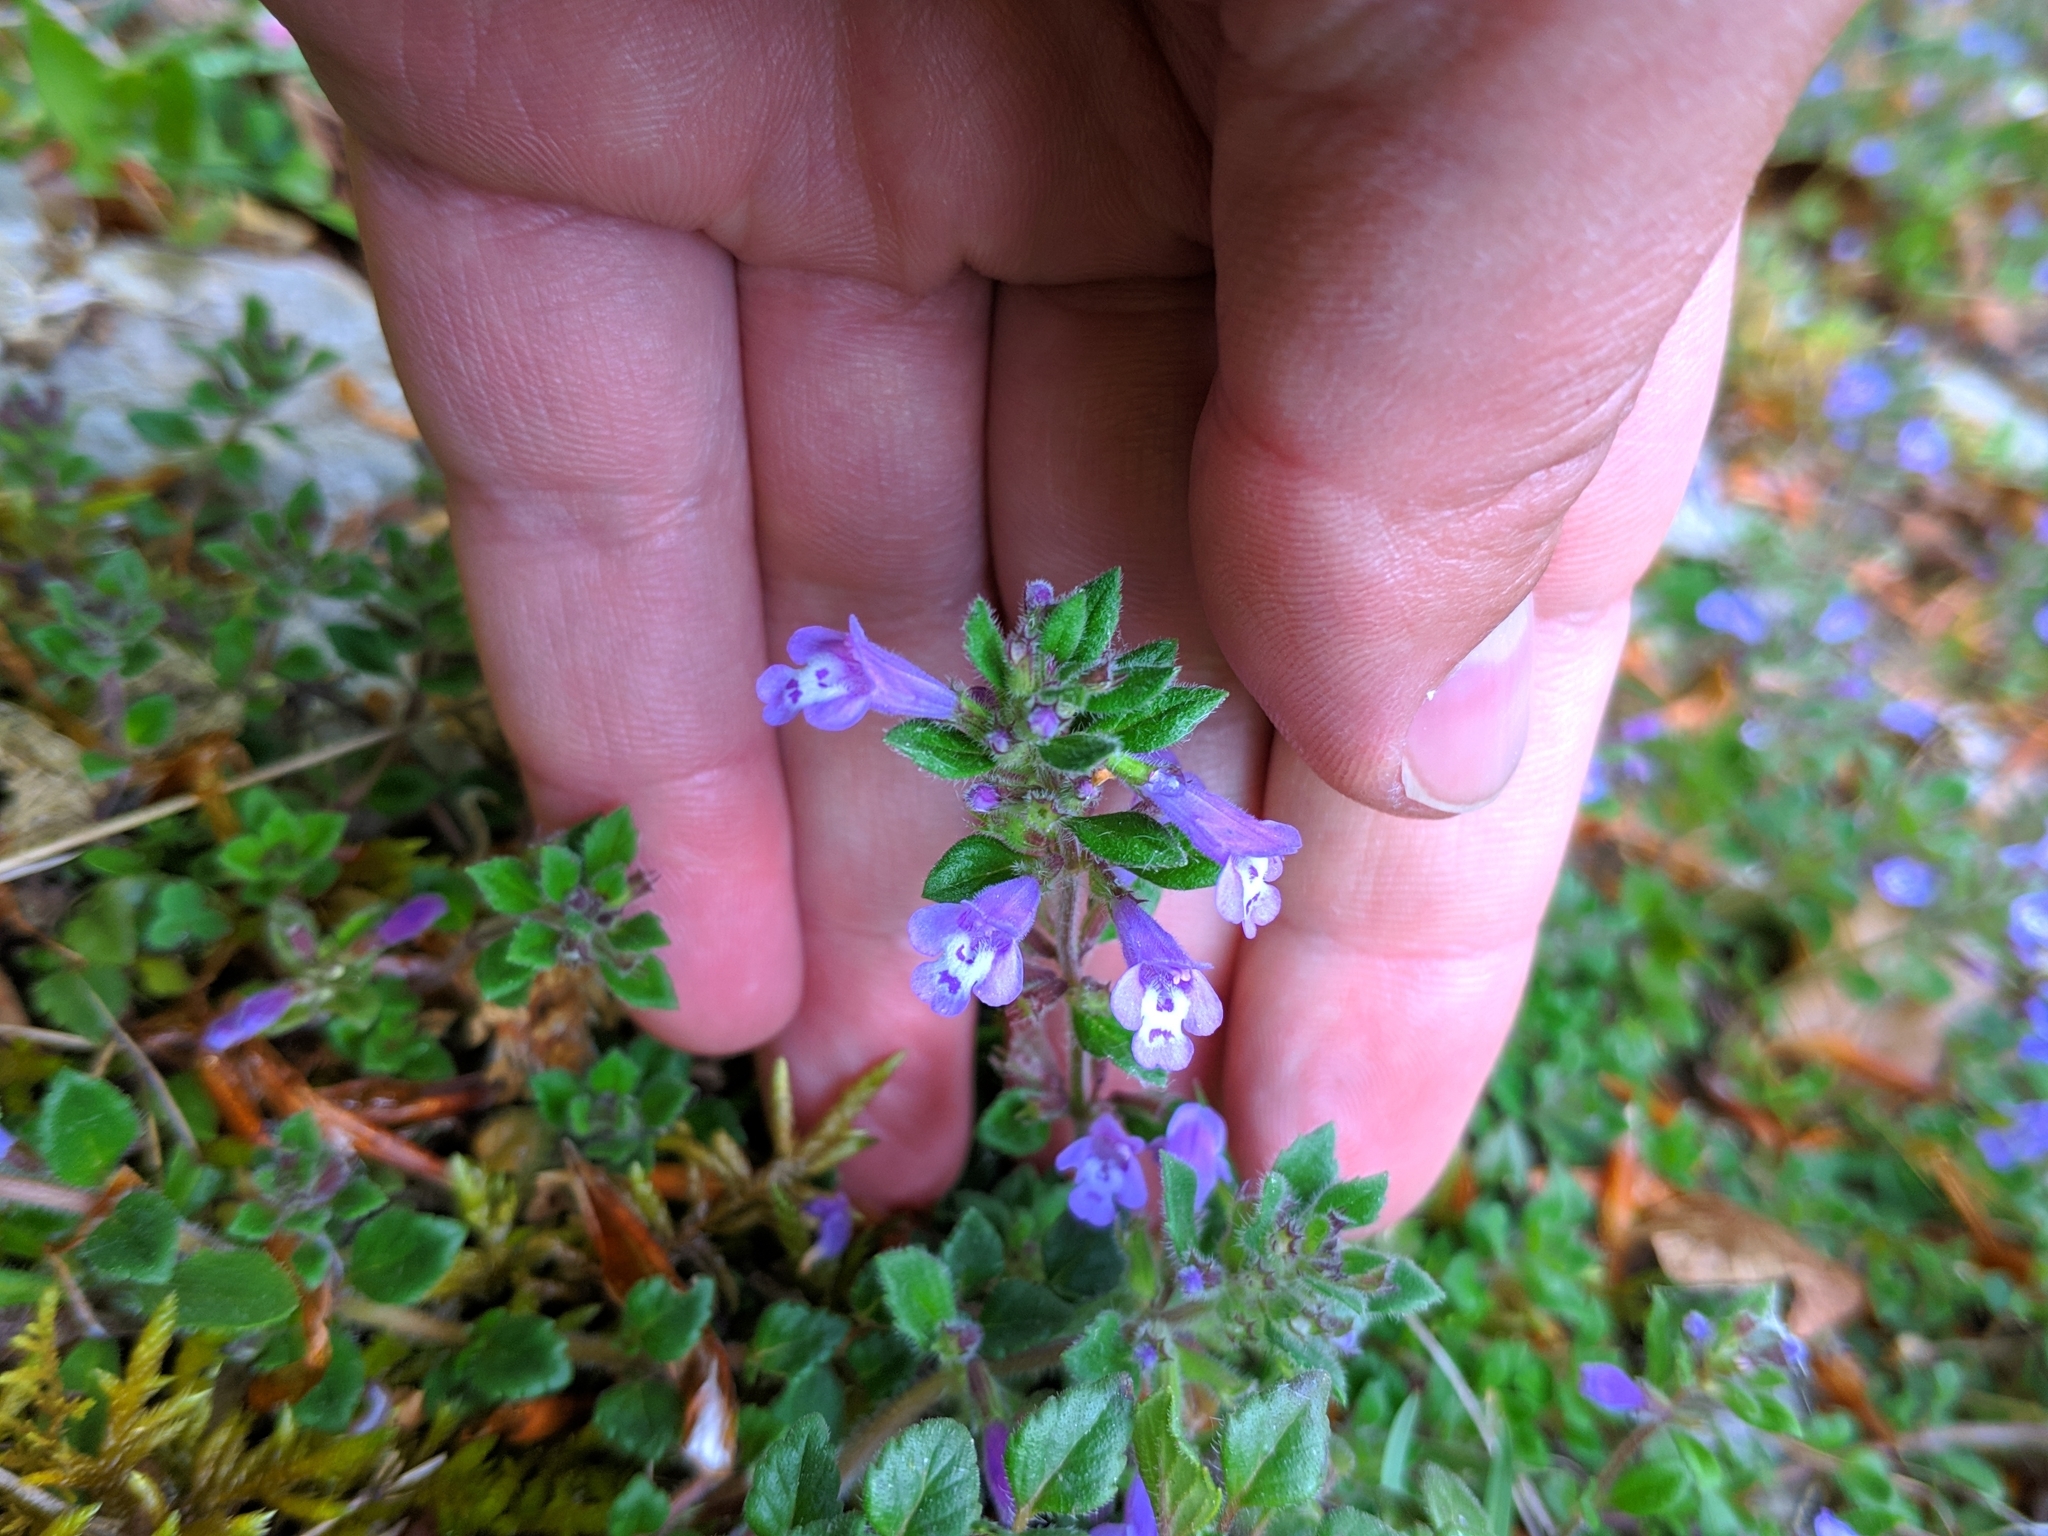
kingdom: Plantae
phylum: Tracheophyta
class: Magnoliopsida
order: Lamiales
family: Lamiaceae
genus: Clinopodium
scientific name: Clinopodium alpinum
